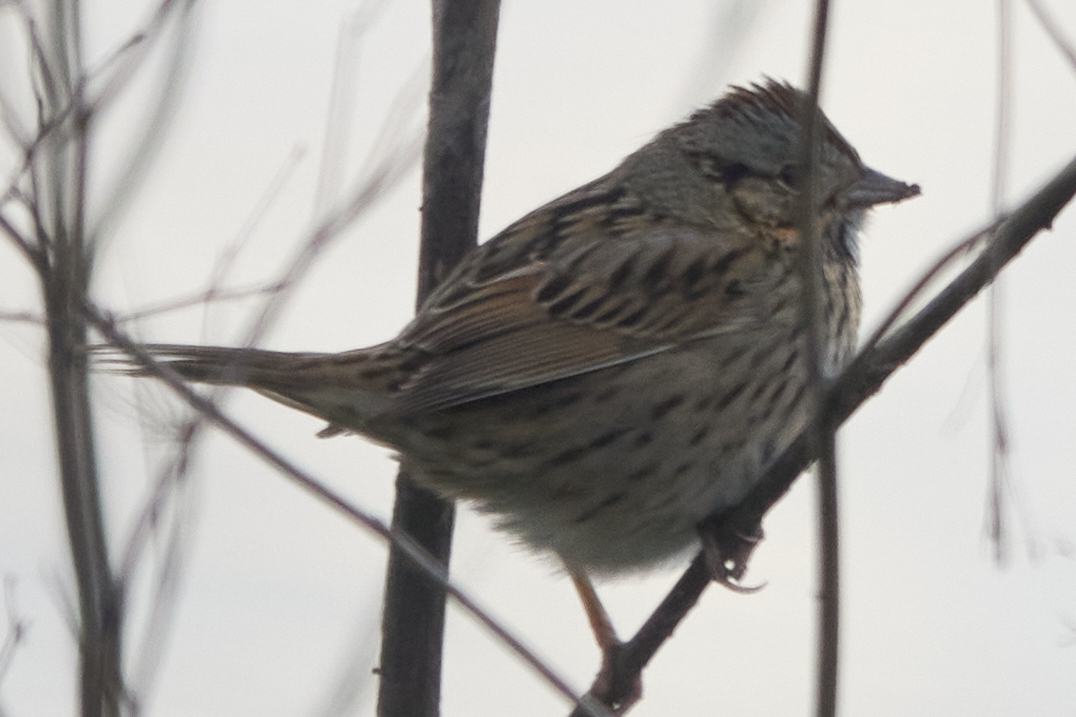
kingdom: Animalia
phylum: Chordata
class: Aves
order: Passeriformes
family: Passerellidae
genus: Melospiza
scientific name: Melospiza lincolnii
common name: Lincoln's sparrow
